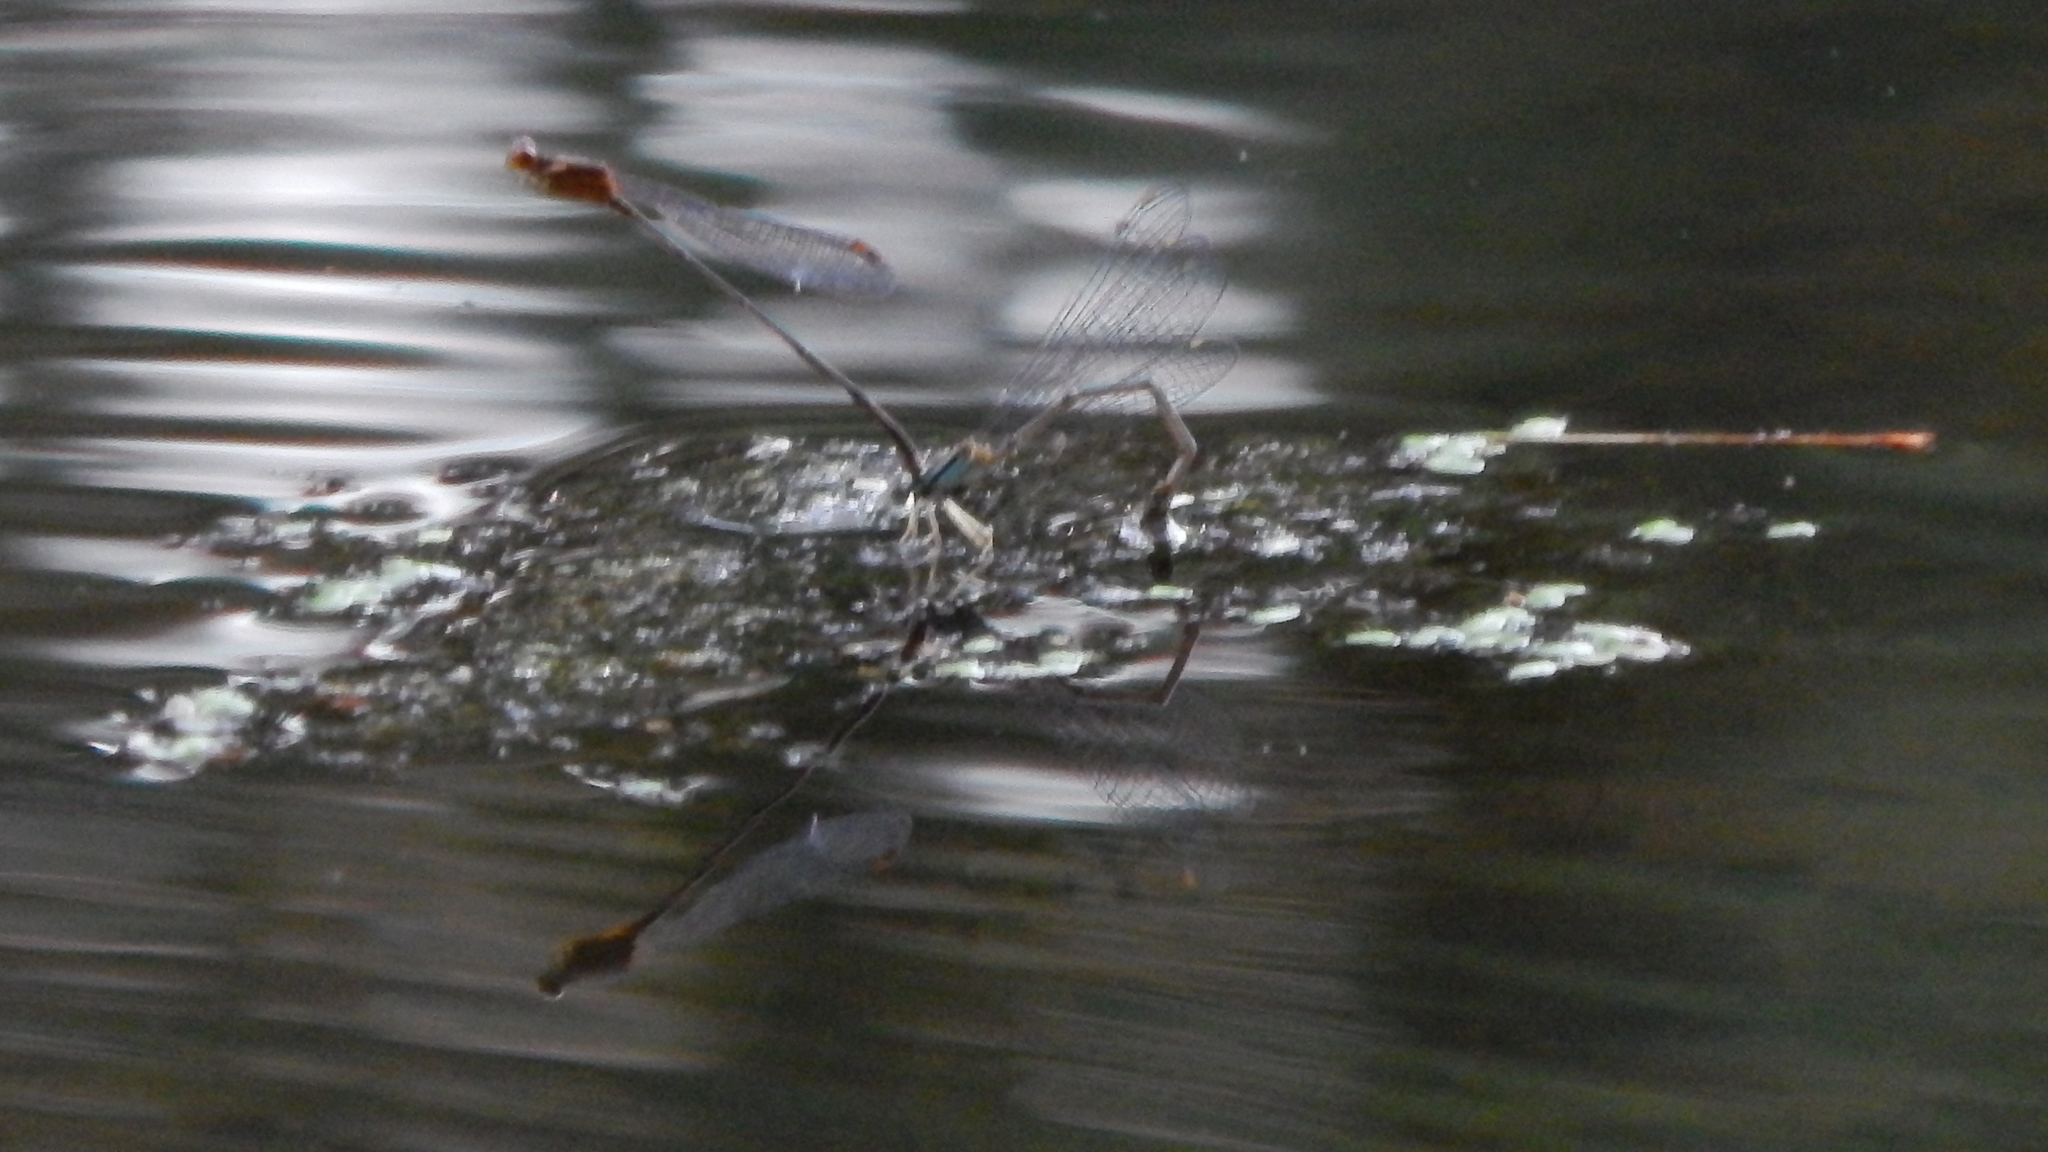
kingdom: Animalia
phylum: Arthropoda
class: Insecta
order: Odonata
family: Coenagrionidae
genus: Enallagma
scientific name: Enallagma signatum
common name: Orange bluet
